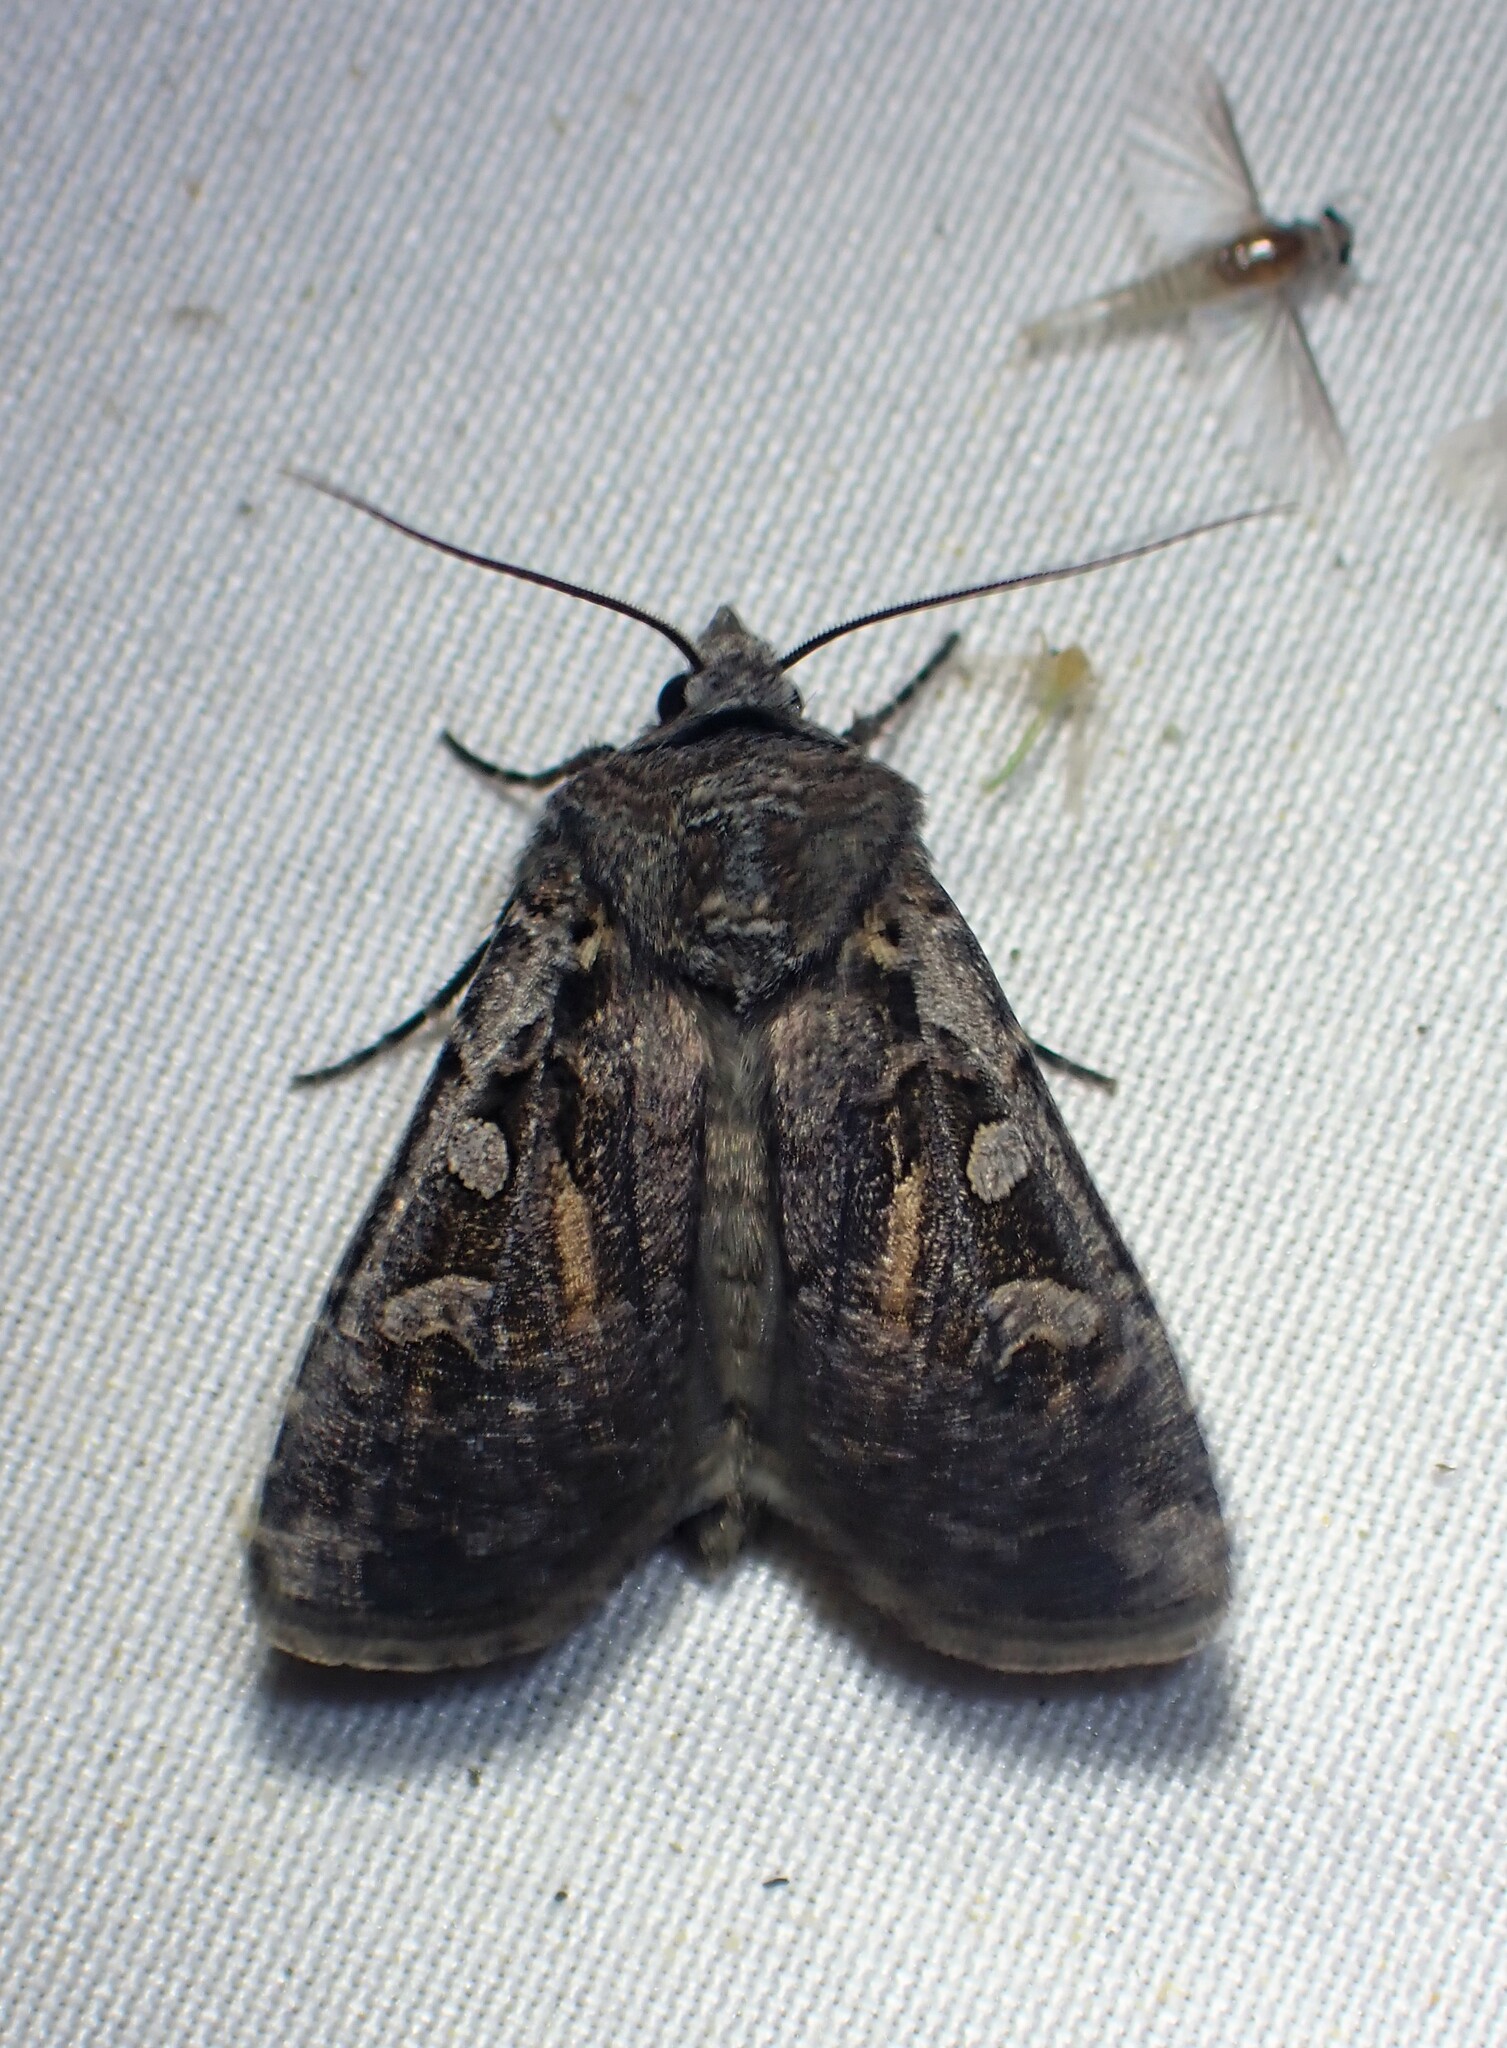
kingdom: Animalia
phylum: Arthropoda
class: Insecta
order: Lepidoptera
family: Noctuidae
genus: Euxoa
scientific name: Euxoa tessellata
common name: Striped cutworm
